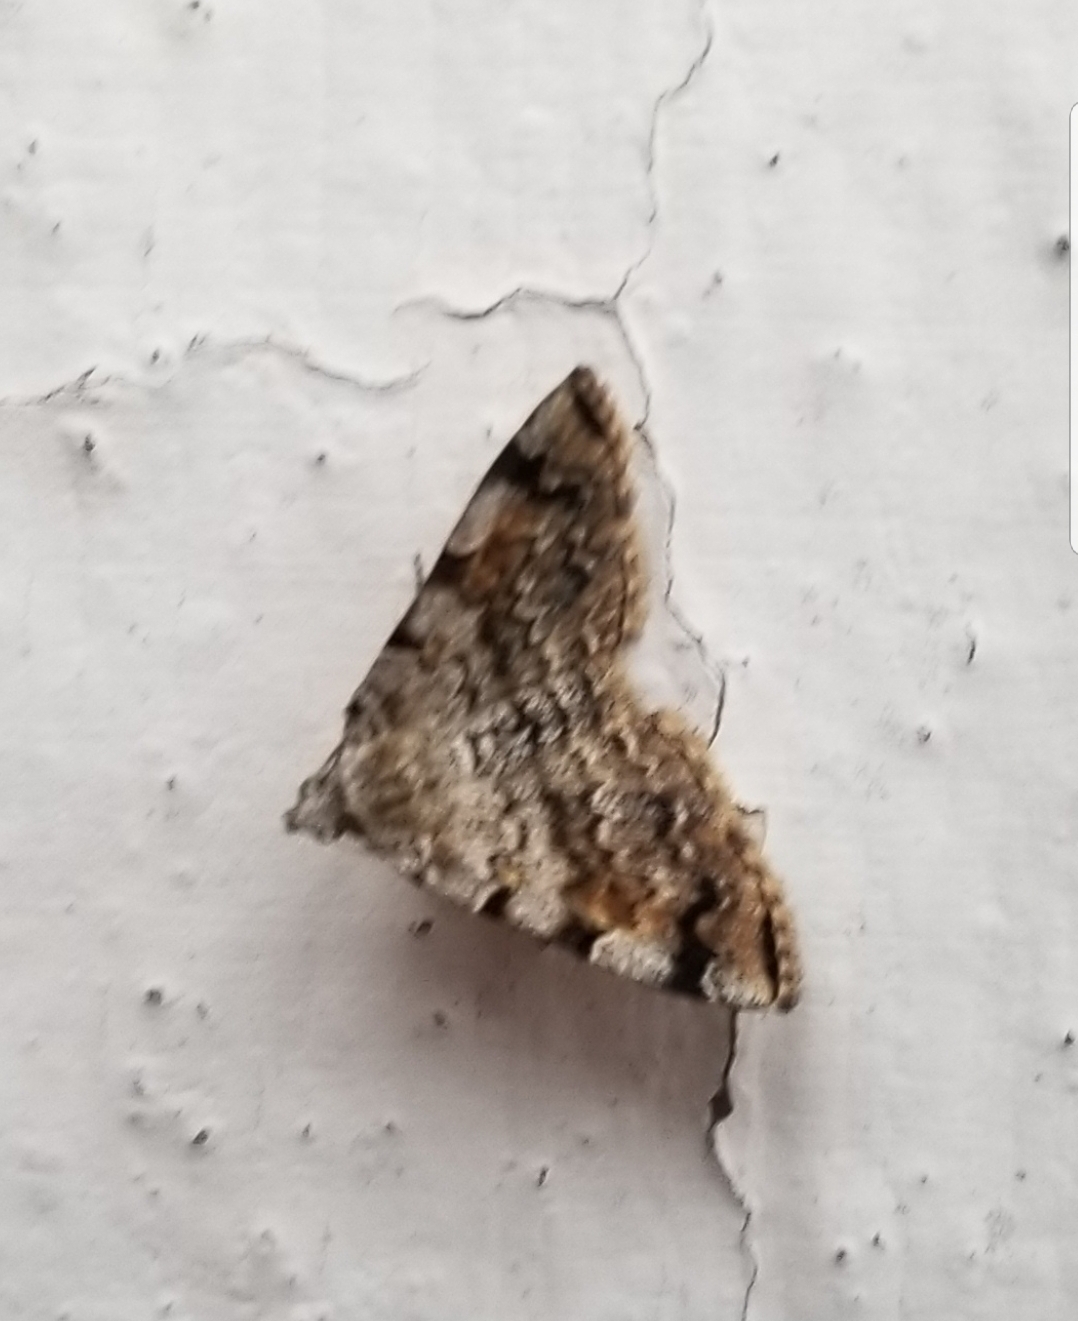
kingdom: Animalia
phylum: Arthropoda
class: Insecta
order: Lepidoptera
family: Erebidae
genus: Idia
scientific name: Idia americalis
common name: American idia moth
